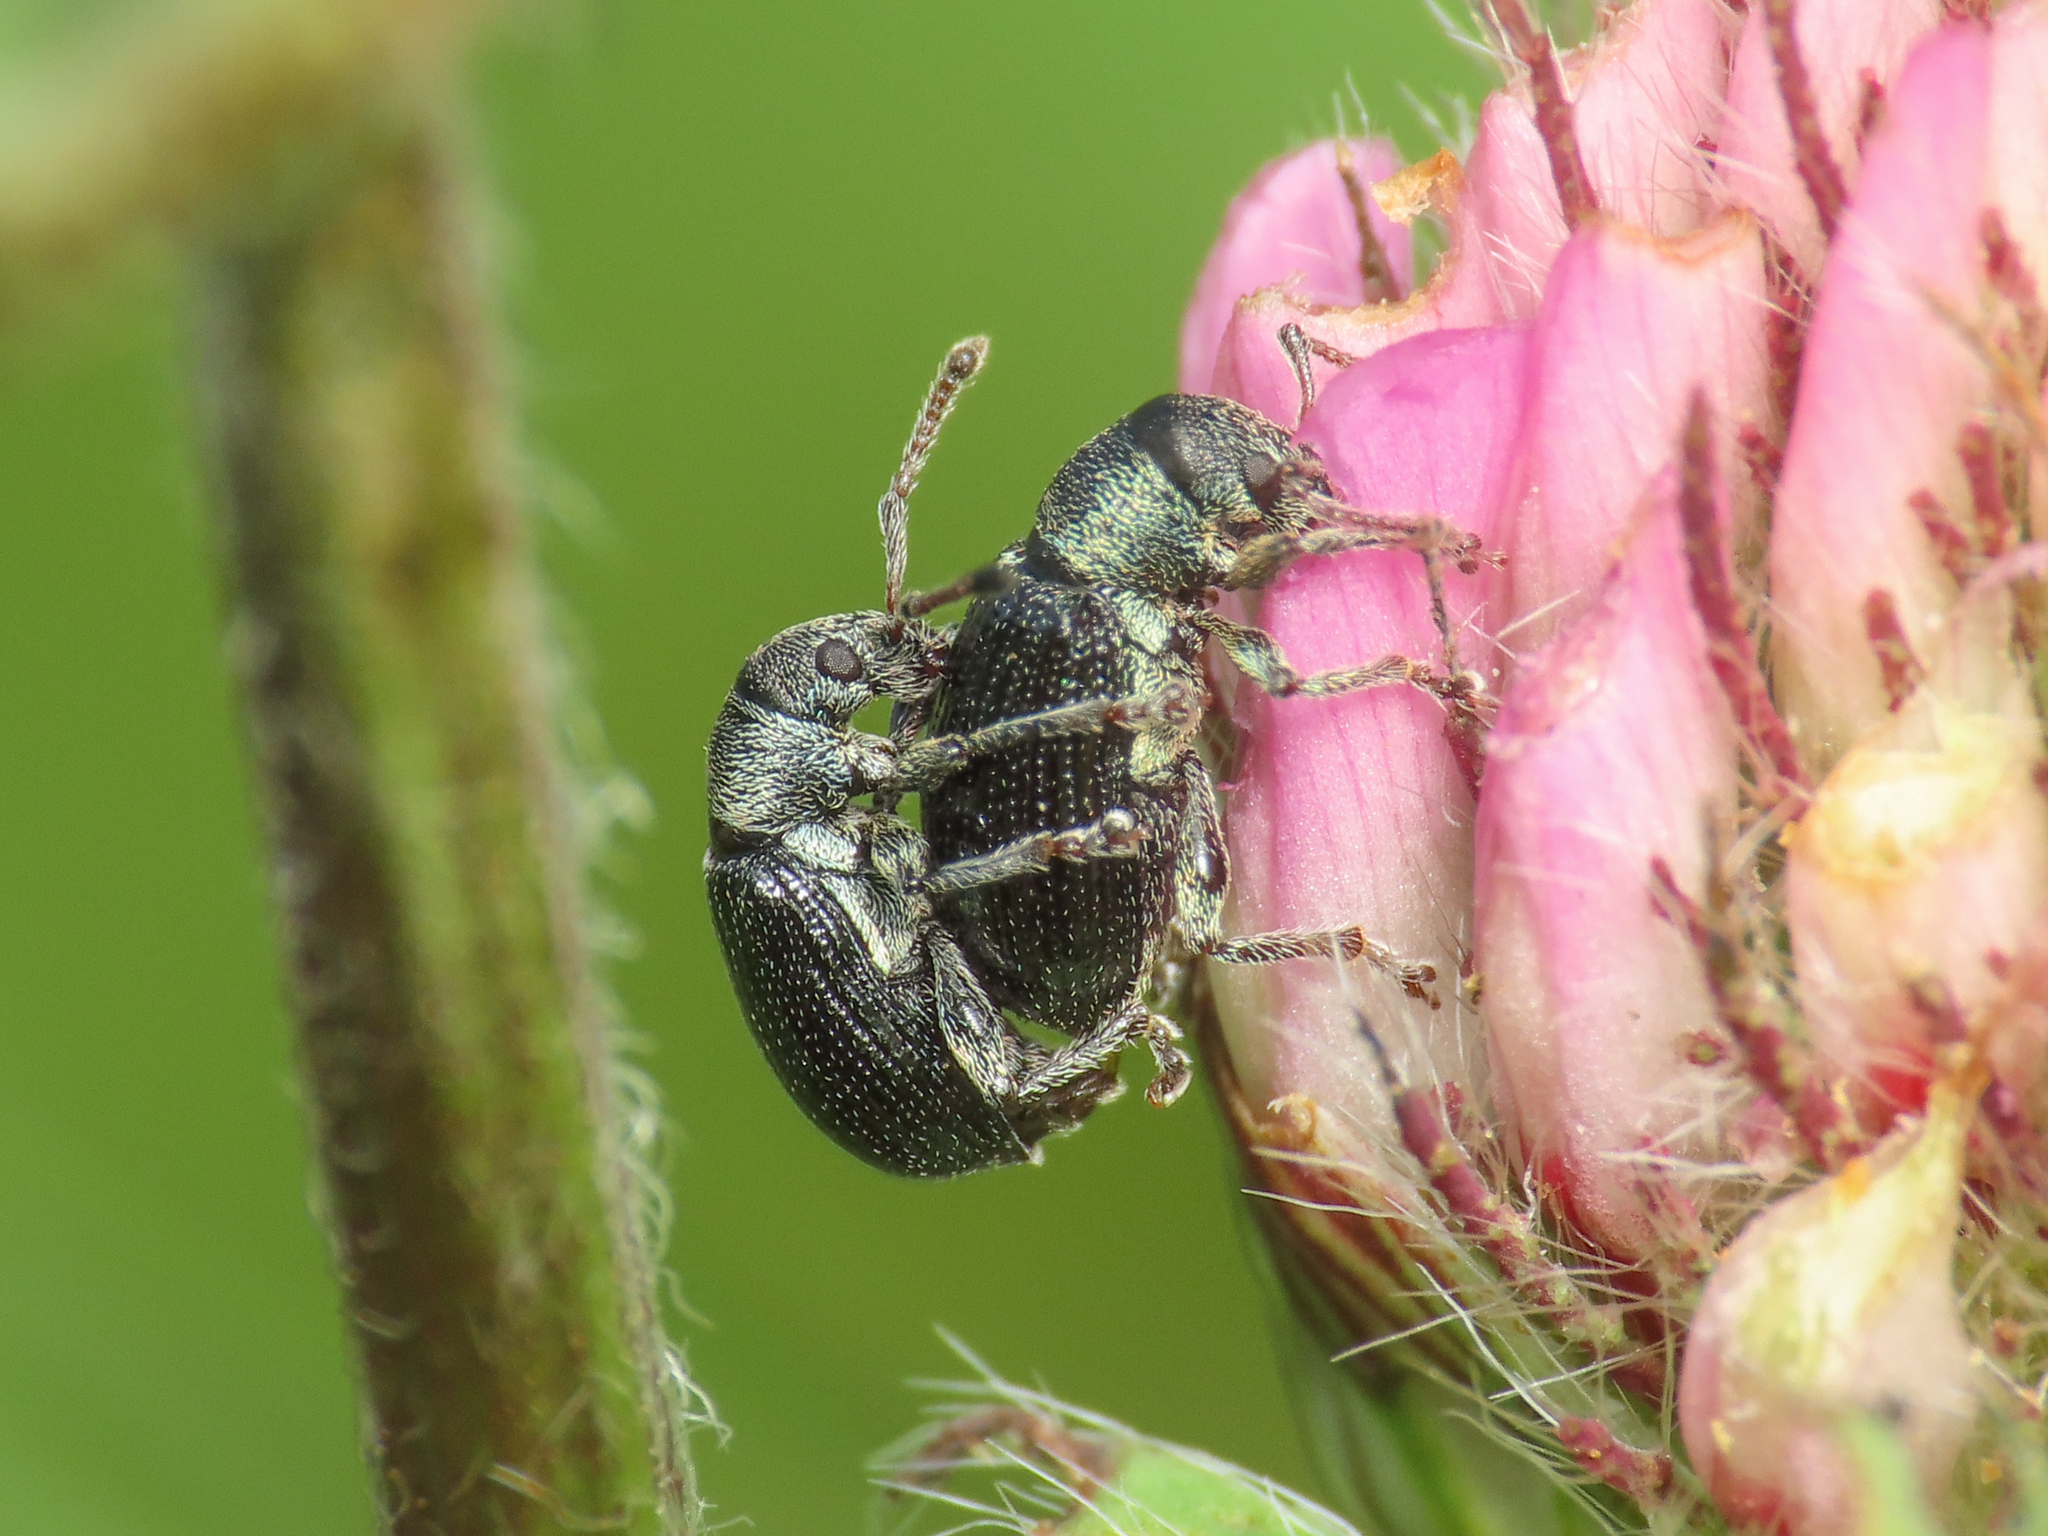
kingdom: Animalia
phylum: Arthropoda
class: Insecta
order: Coleoptera
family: Curculionidae
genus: Phyllobius
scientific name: Phyllobius viridicollis
